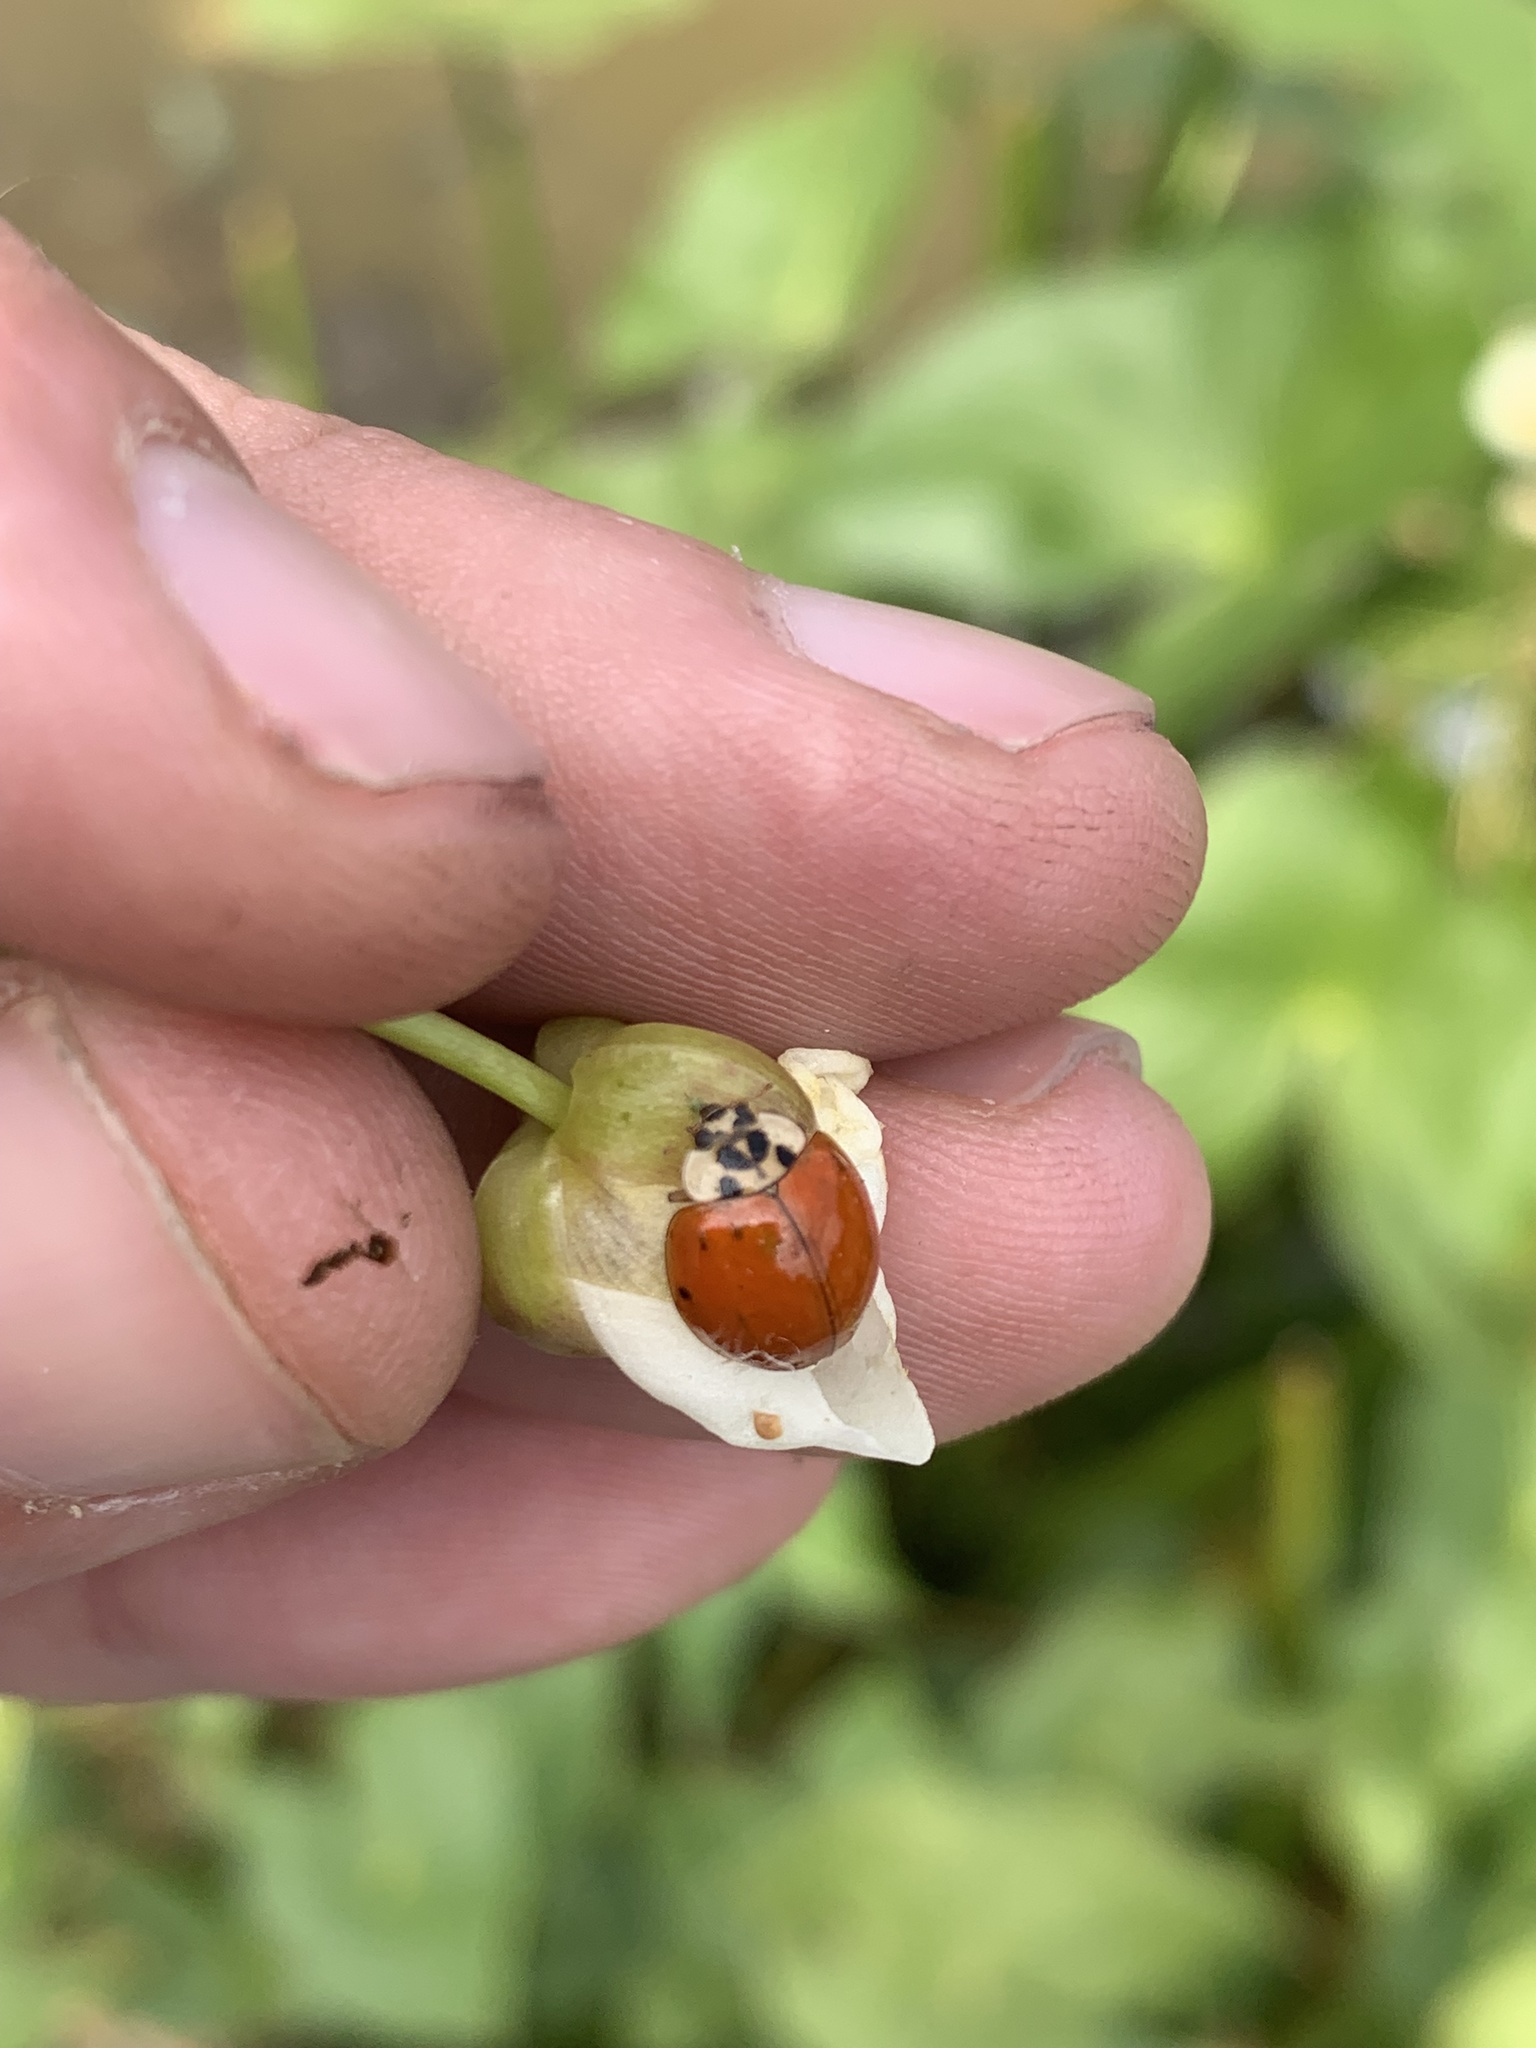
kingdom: Animalia
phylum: Arthropoda
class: Insecta
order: Coleoptera
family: Coccinellidae
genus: Harmonia
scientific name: Harmonia axyridis
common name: Harlequin ladybird
